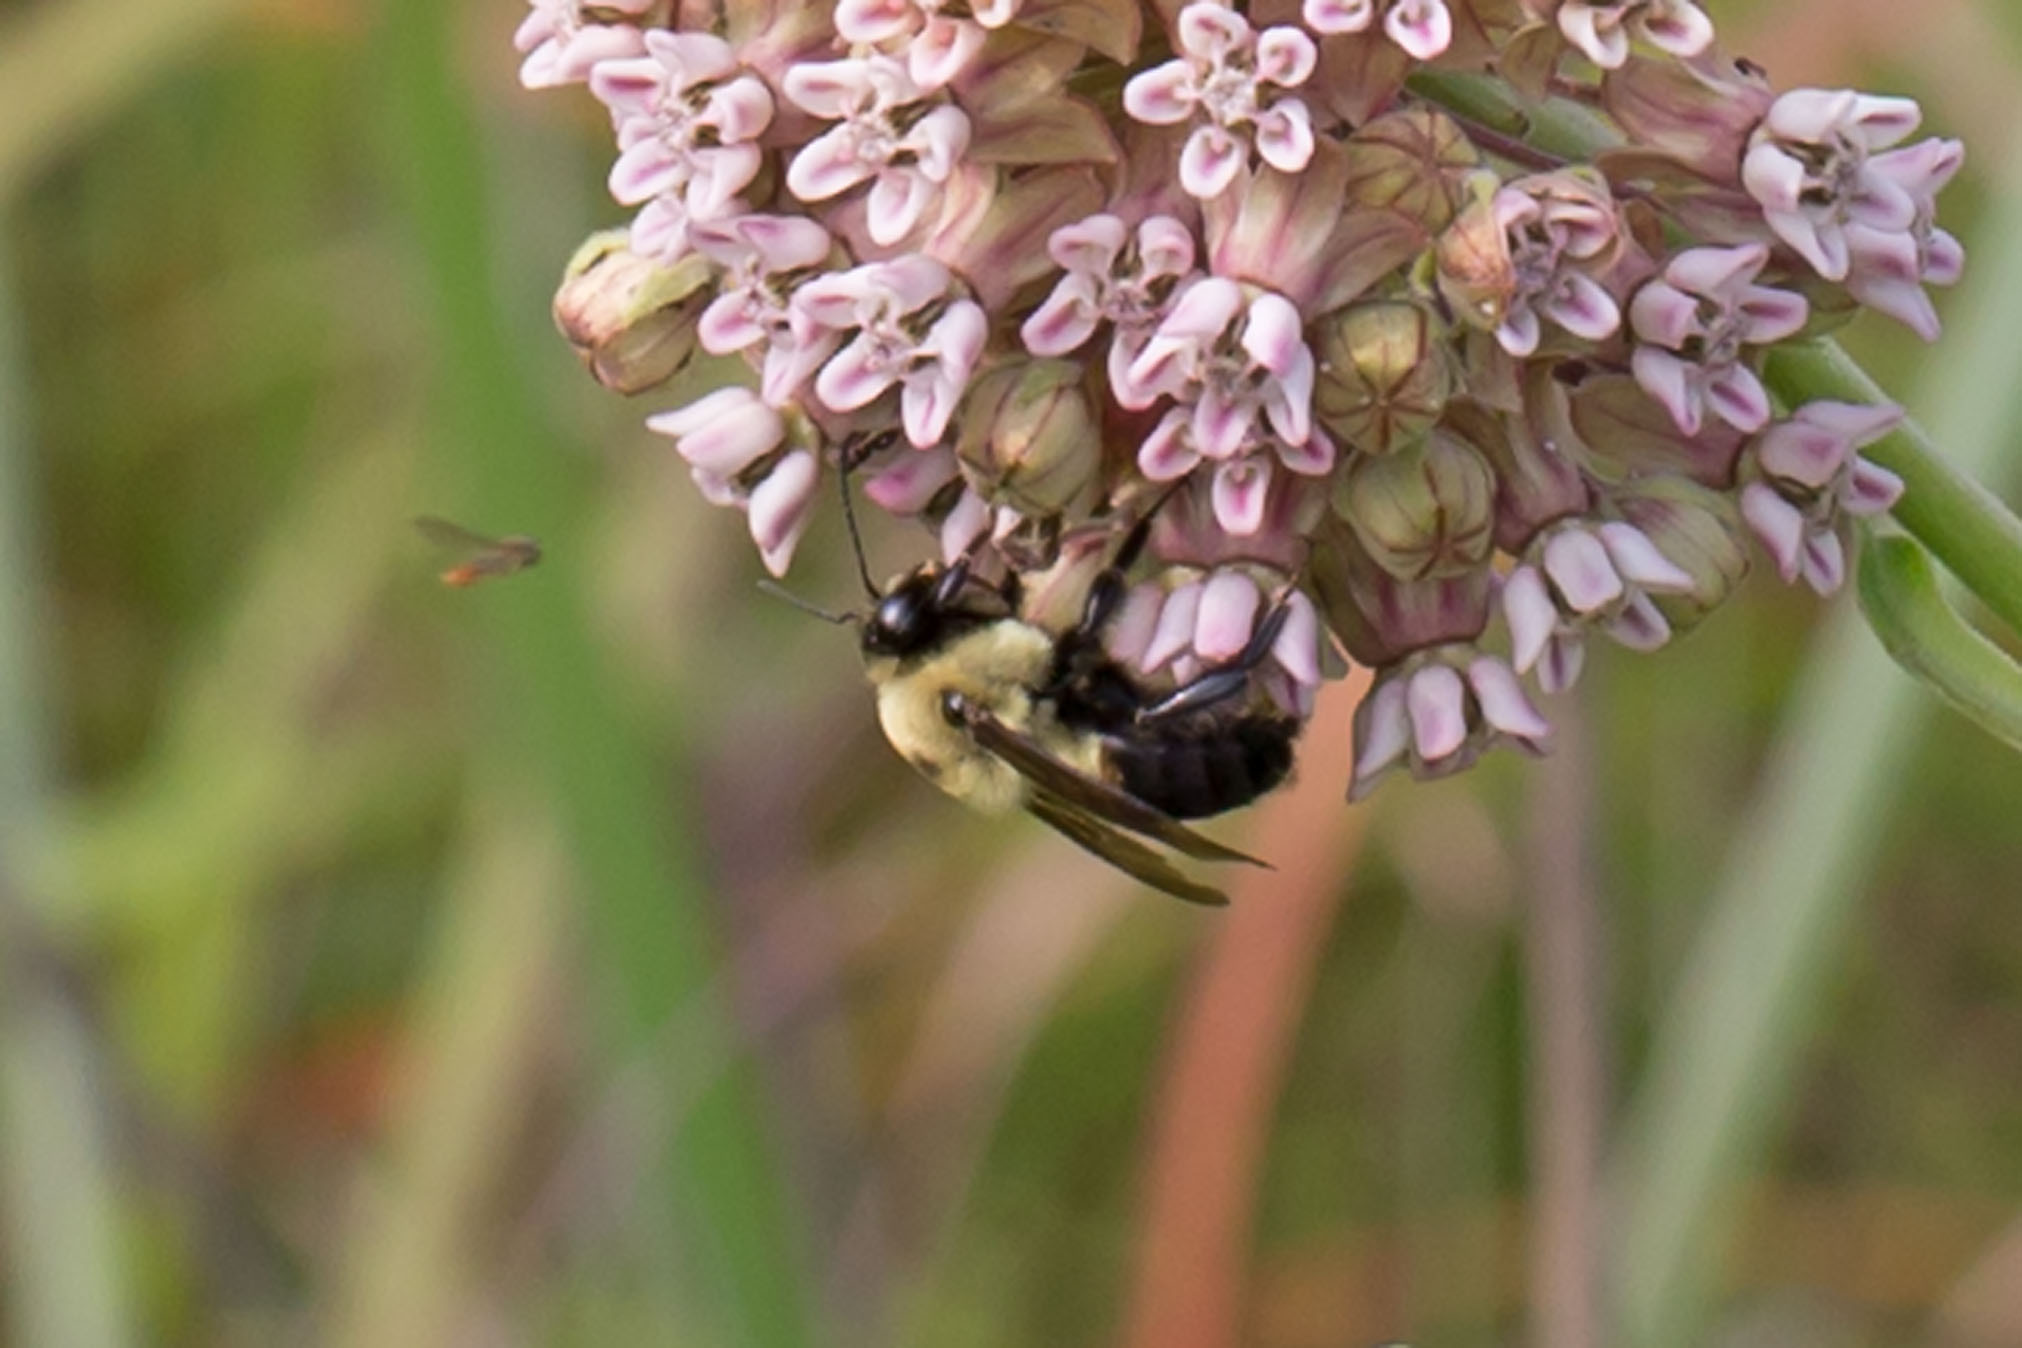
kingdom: Animalia
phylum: Arthropoda
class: Insecta
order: Hymenoptera
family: Apidae
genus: Bombus
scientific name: Bombus griseocollis
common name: Brown-belted bumble bee
